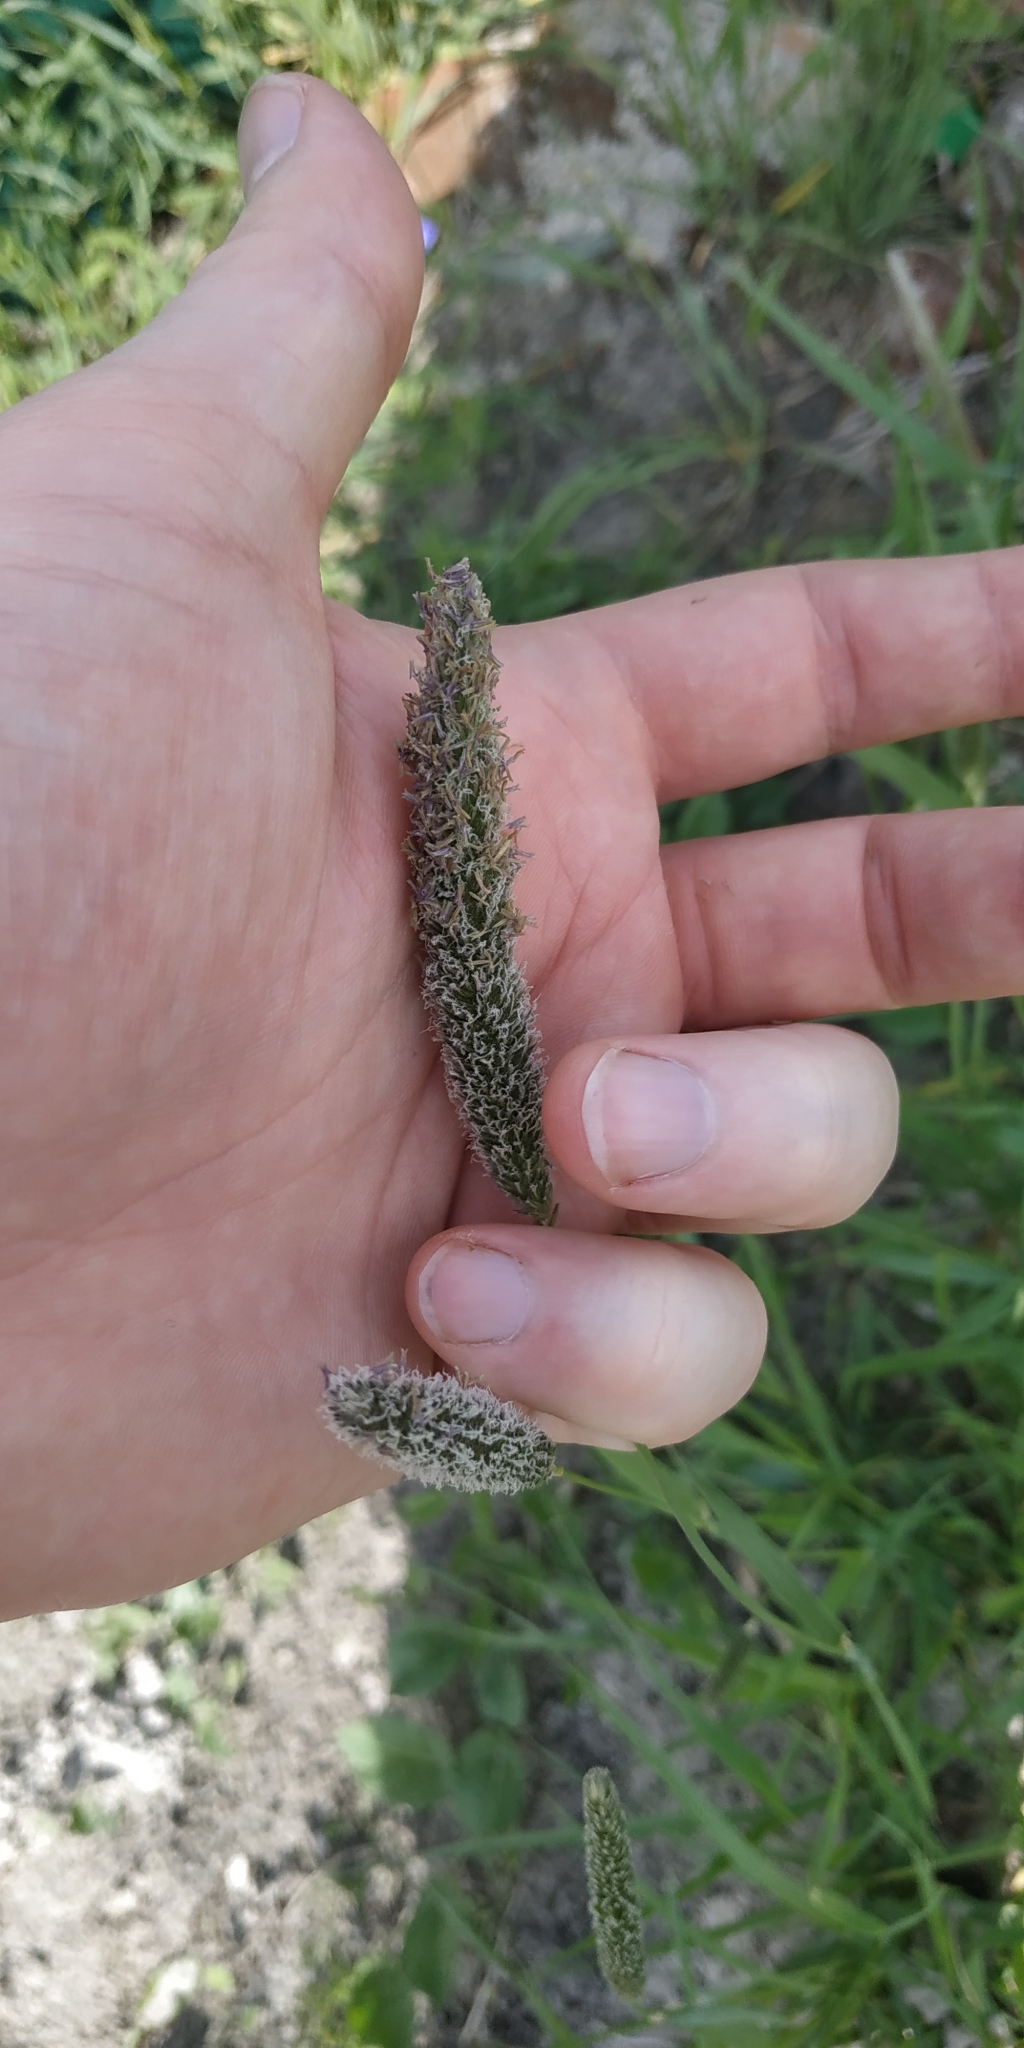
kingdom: Plantae
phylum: Tracheophyta
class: Liliopsida
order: Poales
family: Poaceae
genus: Alopecurus
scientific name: Alopecurus pratensis
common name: Meadow foxtail
